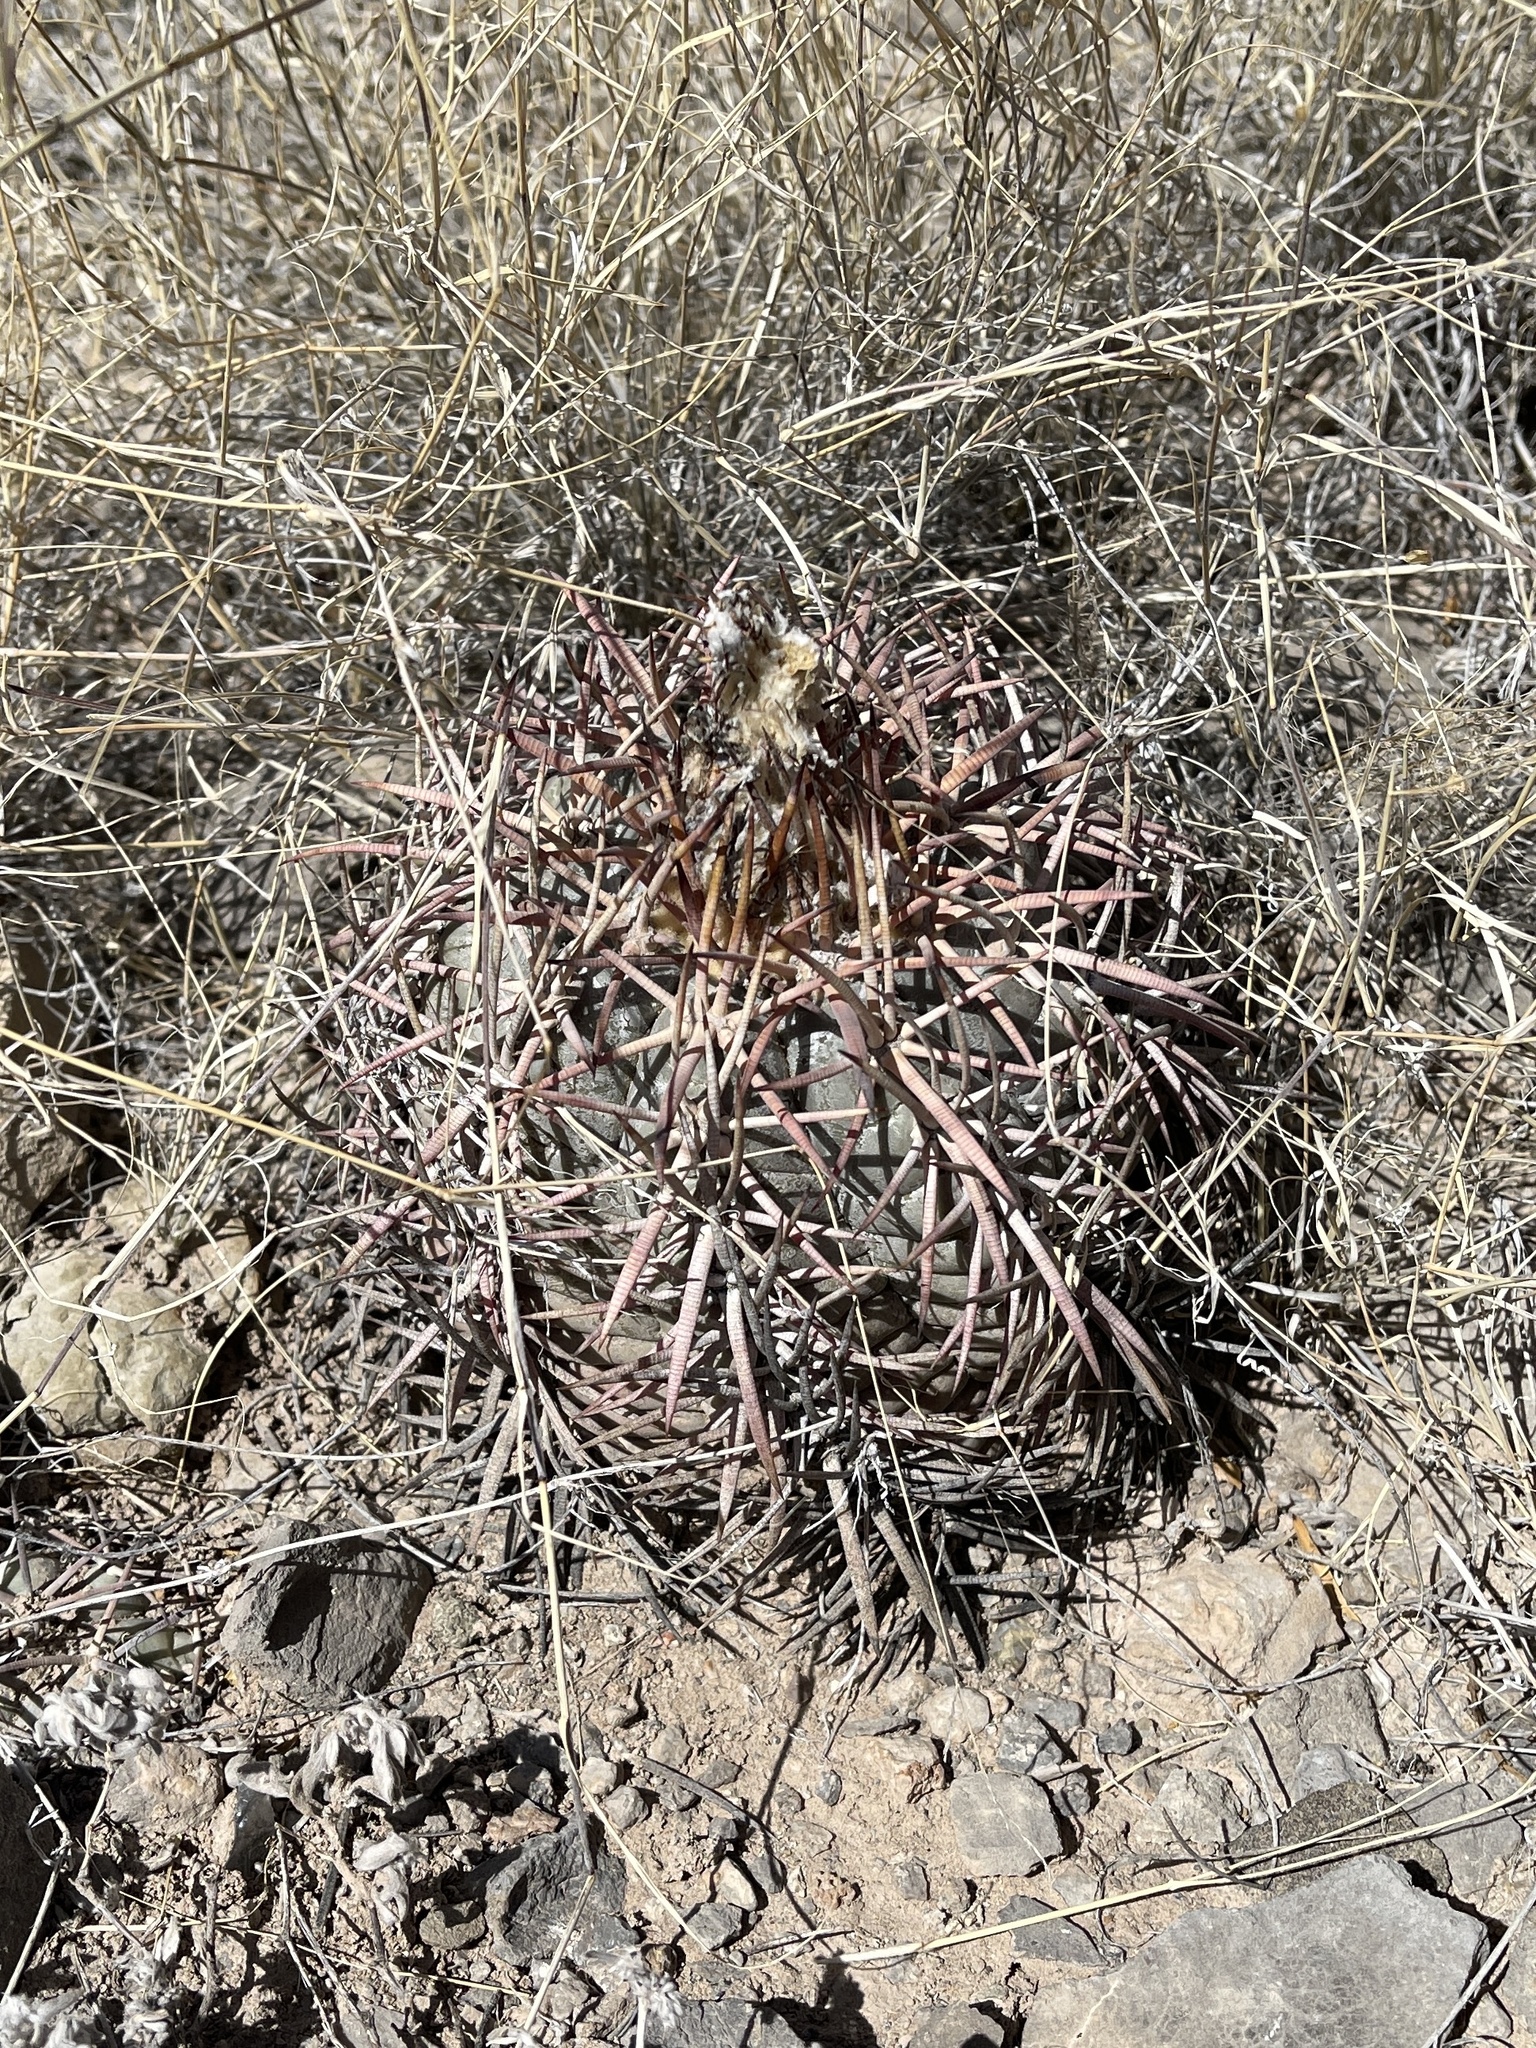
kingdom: Plantae
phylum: Tracheophyta
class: Magnoliopsida
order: Caryophyllales
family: Cactaceae
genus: Echinocactus
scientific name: Echinocactus horizonthalonius
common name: Devilshead
